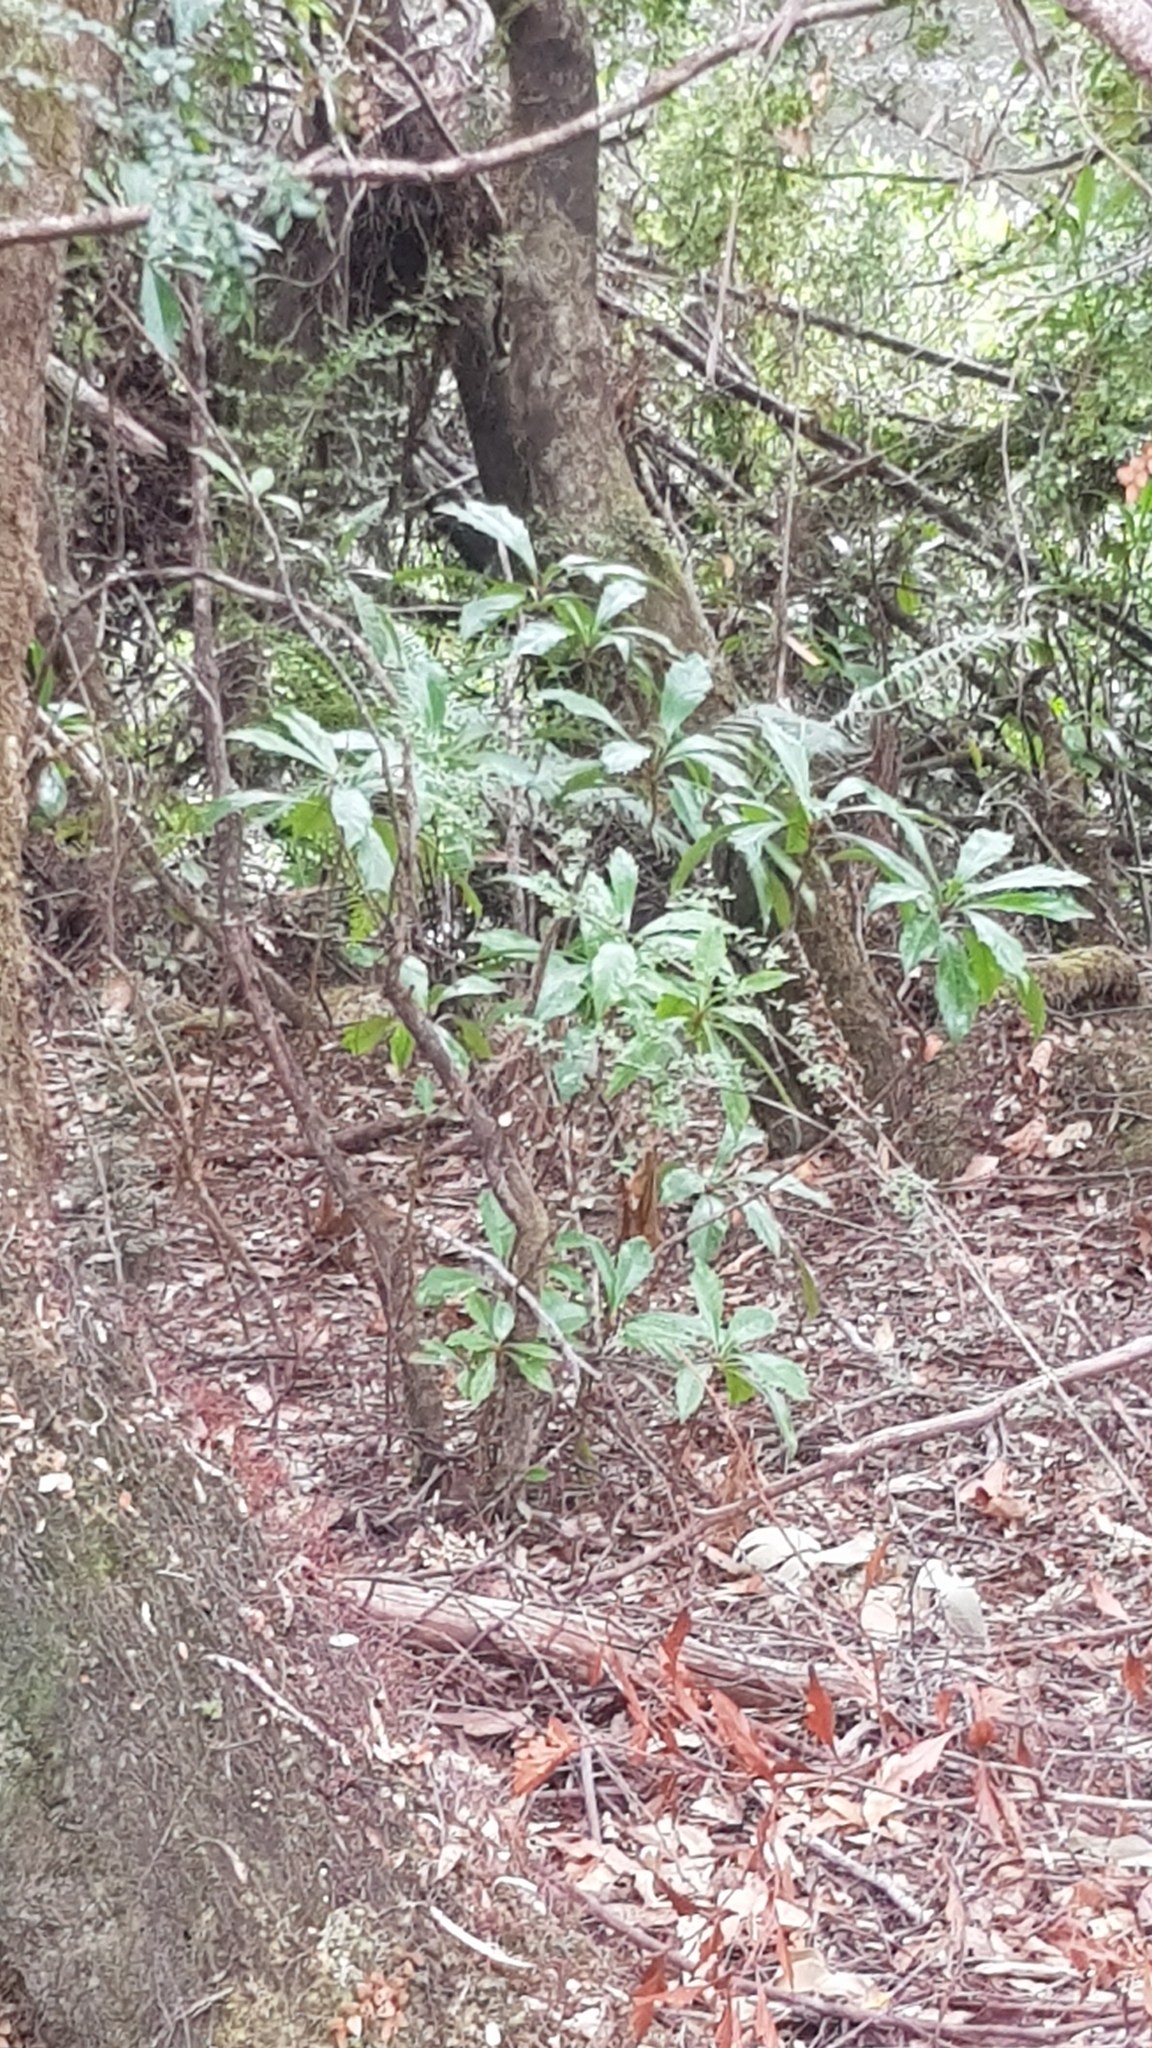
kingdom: Plantae
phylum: Tracheophyta
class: Magnoliopsida
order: Escalloniales
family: Escalloniaceae
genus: Anopterus
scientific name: Anopterus glandulosus
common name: Tasmanian-laurel
